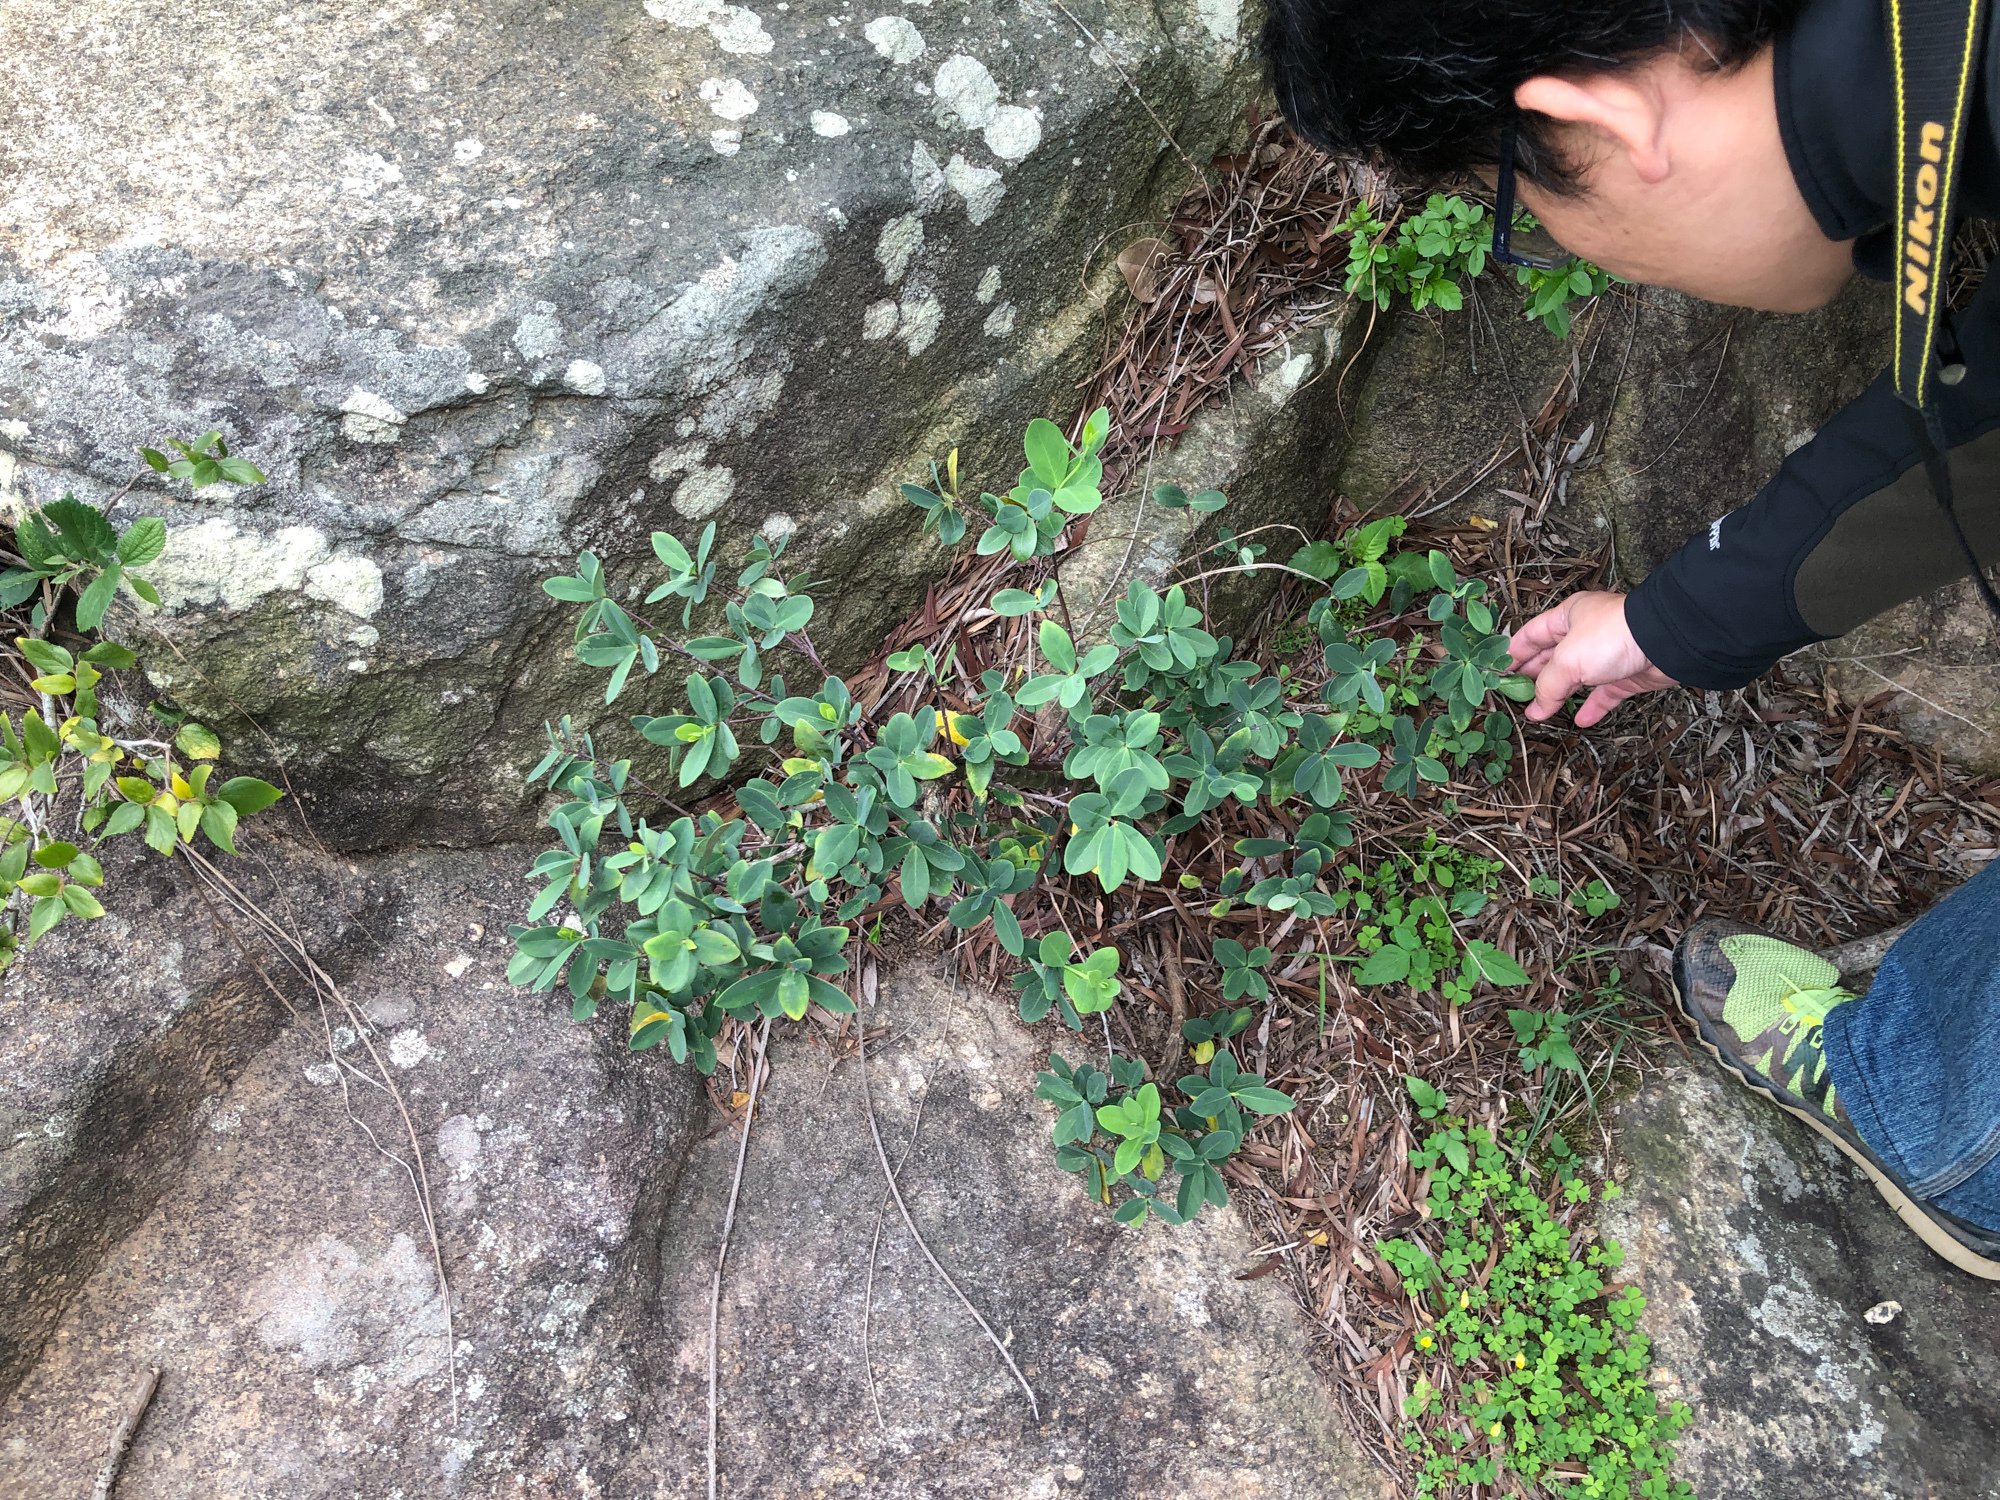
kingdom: Plantae
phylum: Tracheophyta
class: Magnoliopsida
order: Malvales
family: Thymelaeaceae
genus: Wikstroemia
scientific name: Wikstroemia indica
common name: Tiebush
